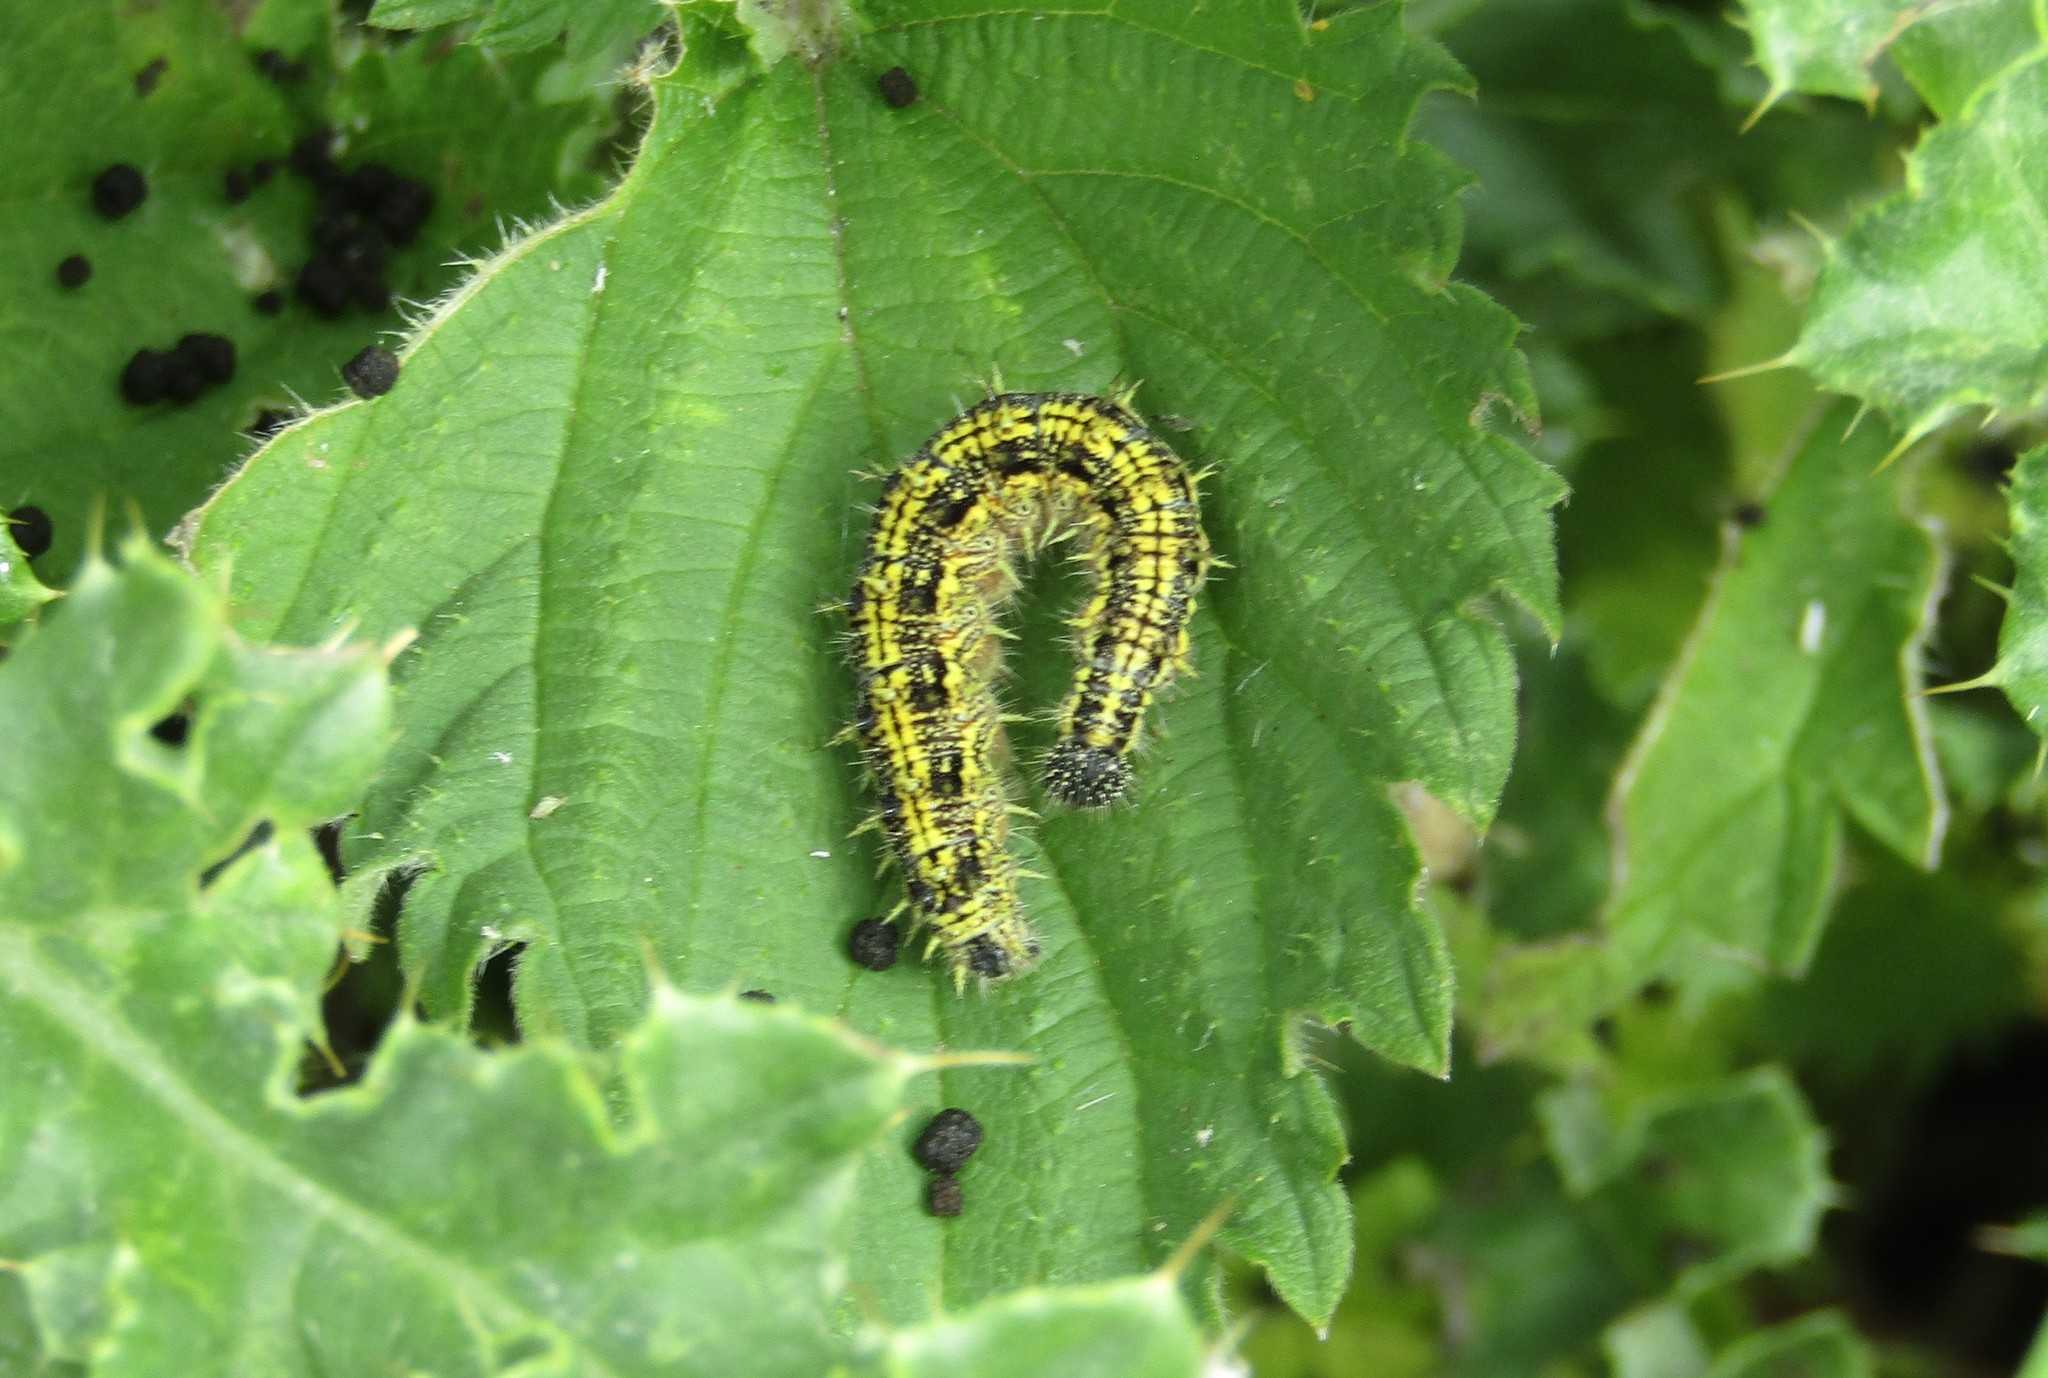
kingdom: Animalia
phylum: Arthropoda
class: Insecta
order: Lepidoptera
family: Nymphalidae
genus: Aglais
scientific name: Aglais urticae
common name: Small tortoiseshell
